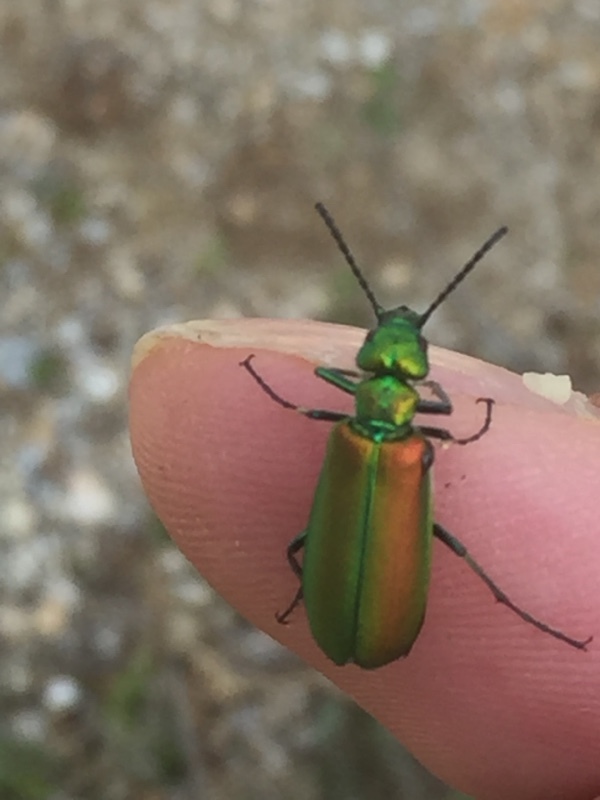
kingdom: Animalia
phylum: Arthropoda
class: Insecta
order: Coleoptera
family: Meloidae
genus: Lytta
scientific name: Lytta vesicatoria
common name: Spanish fly
